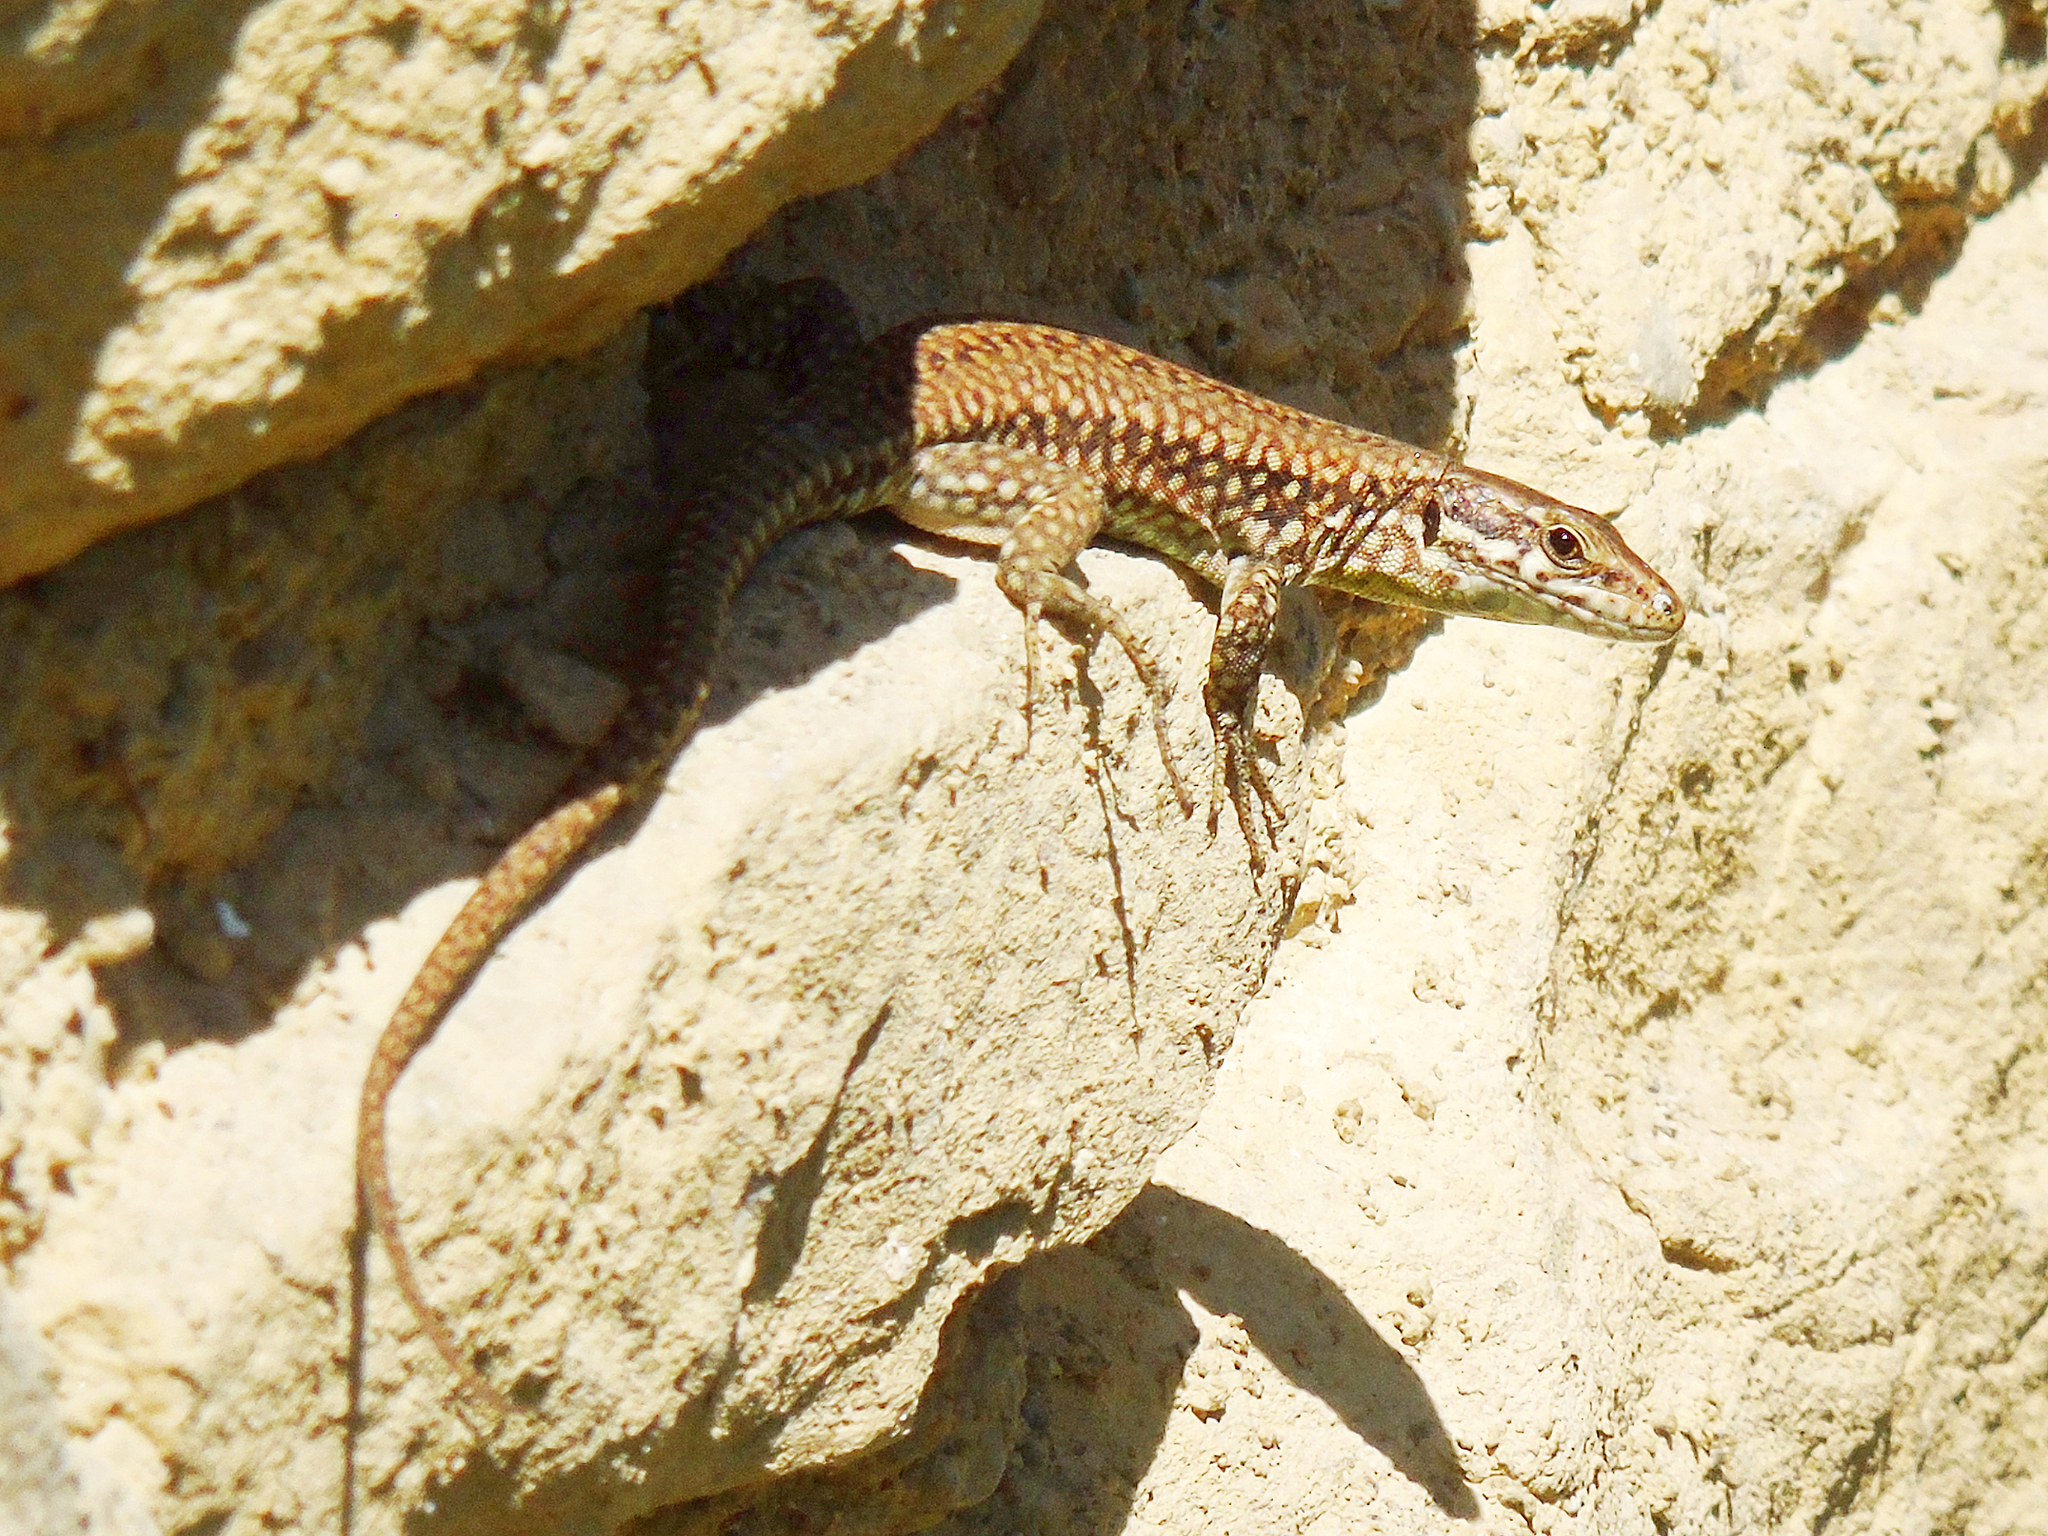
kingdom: Animalia
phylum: Chordata
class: Squamata
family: Lacertidae
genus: Podarcis
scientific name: Podarcis muralis
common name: Common wall lizard
